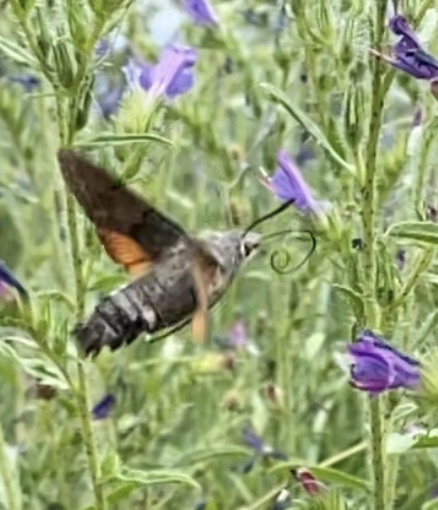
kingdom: Animalia
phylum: Arthropoda
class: Insecta
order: Lepidoptera
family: Sphingidae
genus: Macroglossum
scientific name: Macroglossum stellatarum
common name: Humming-bird hawk-moth
